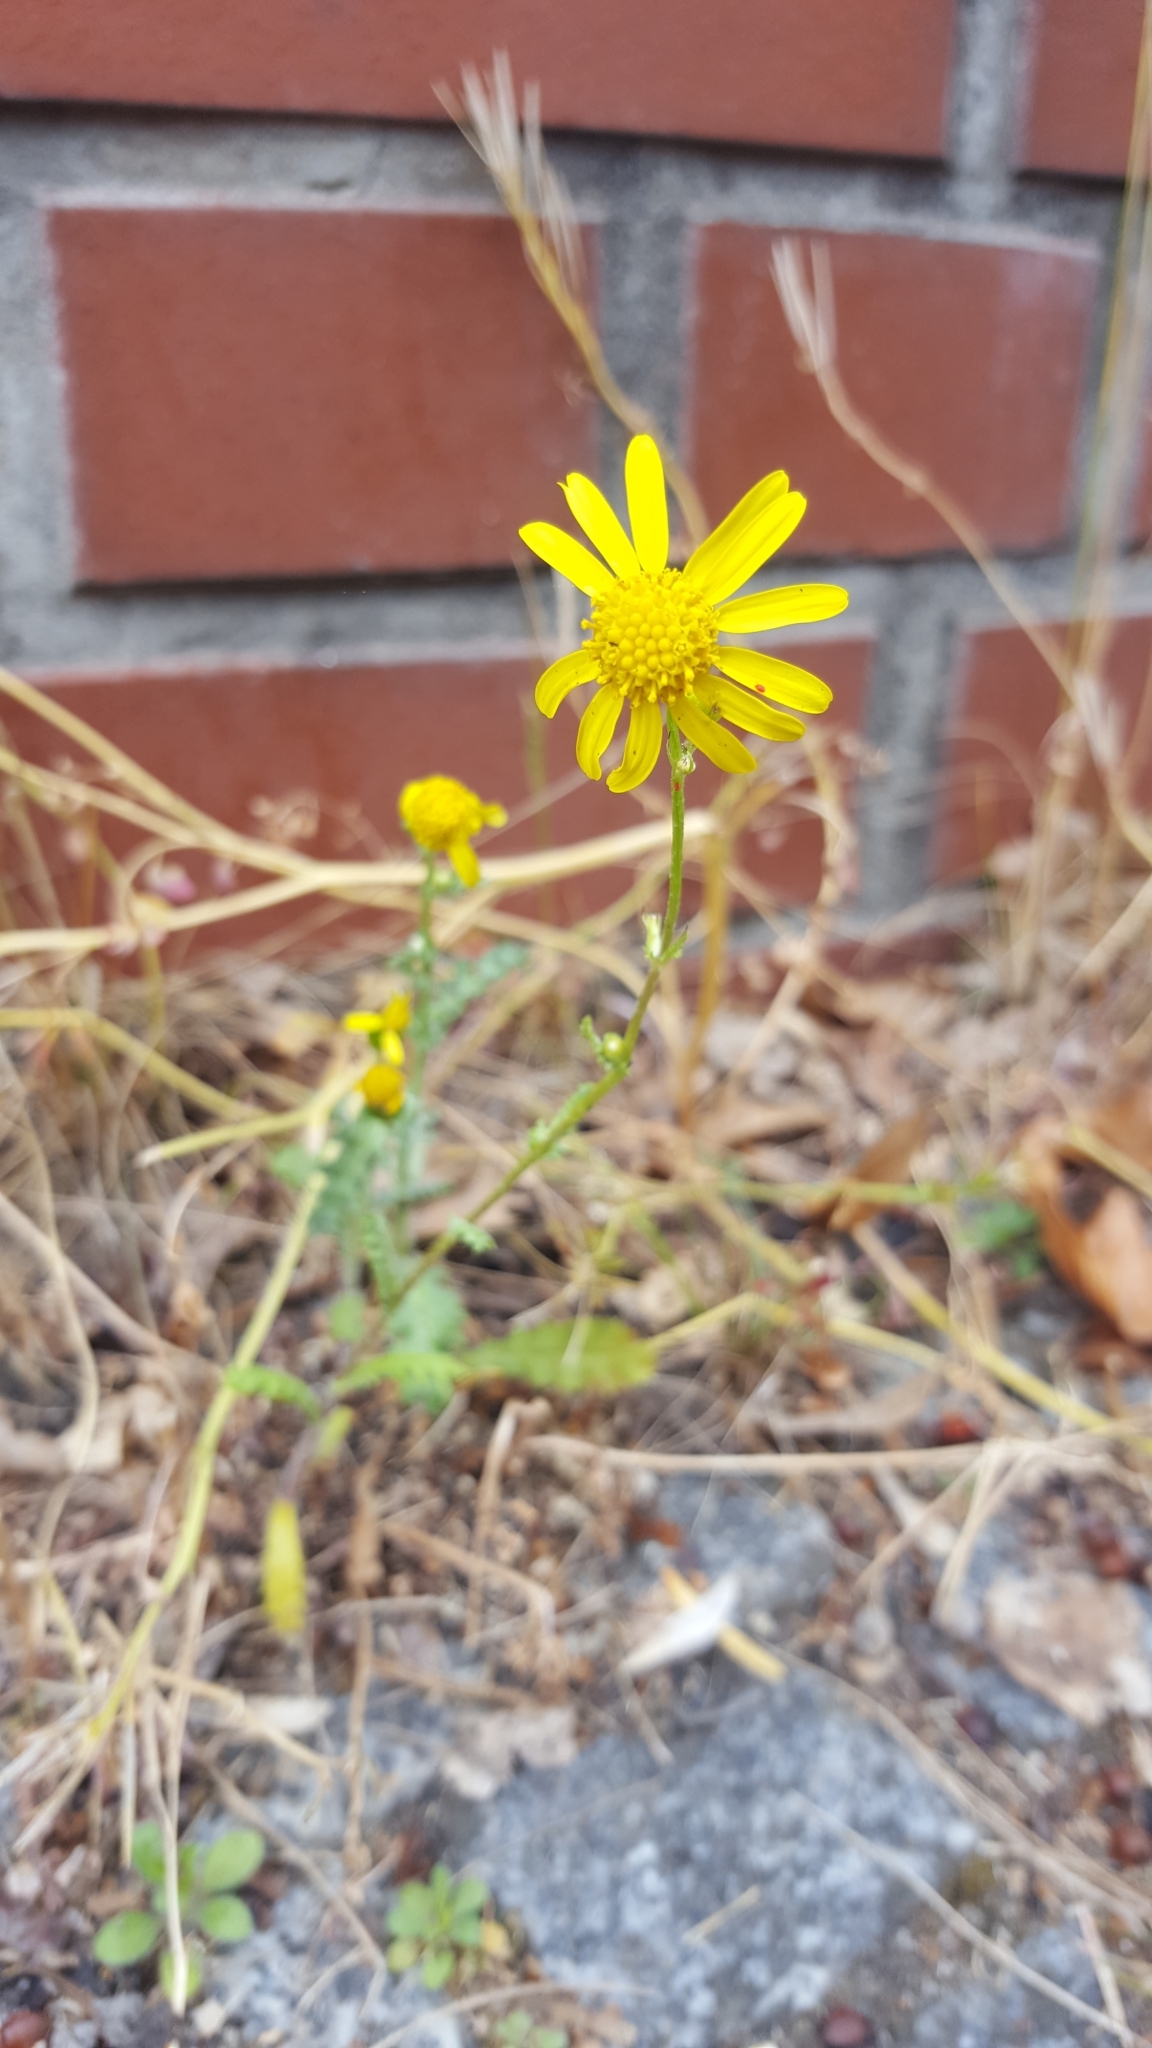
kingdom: Plantae
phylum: Tracheophyta
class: Magnoliopsida
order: Asterales
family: Asteraceae
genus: Senecio
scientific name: Senecio vernalis
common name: Eastern groundsel
